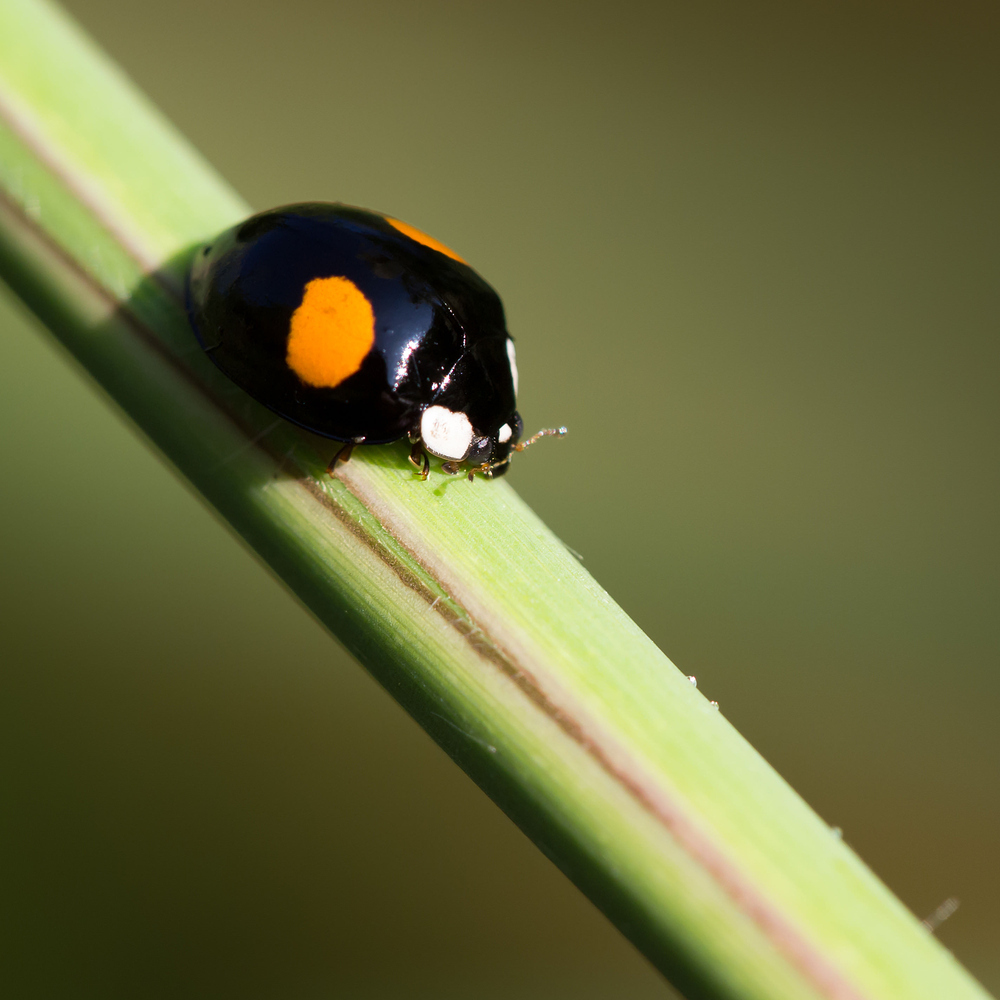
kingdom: Animalia
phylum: Arthropoda
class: Insecta
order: Coleoptera
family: Coccinellidae
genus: Harmonia
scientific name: Harmonia axyridis
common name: Harlequin ladybird
